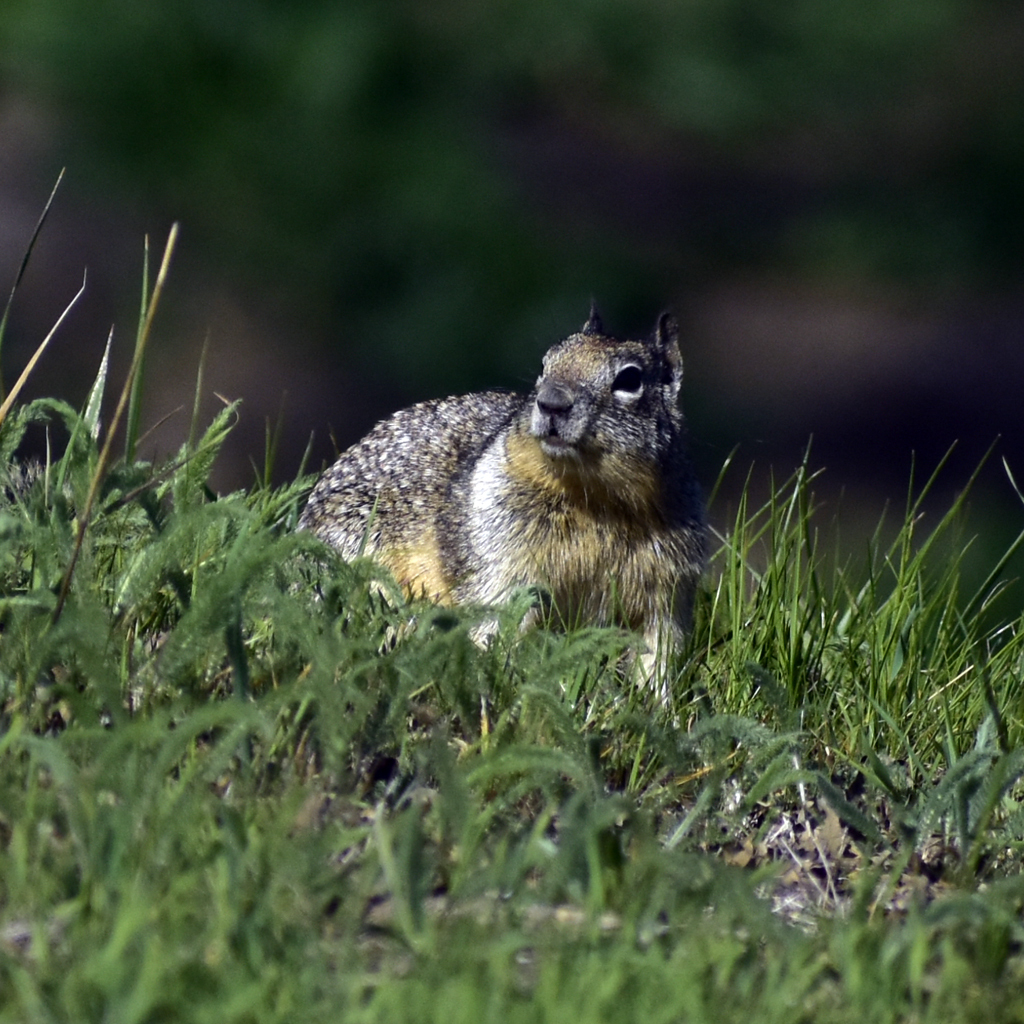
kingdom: Animalia
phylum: Chordata
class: Mammalia
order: Rodentia
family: Sciuridae
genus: Otospermophilus
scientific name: Otospermophilus beecheyi
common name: California ground squirrel
